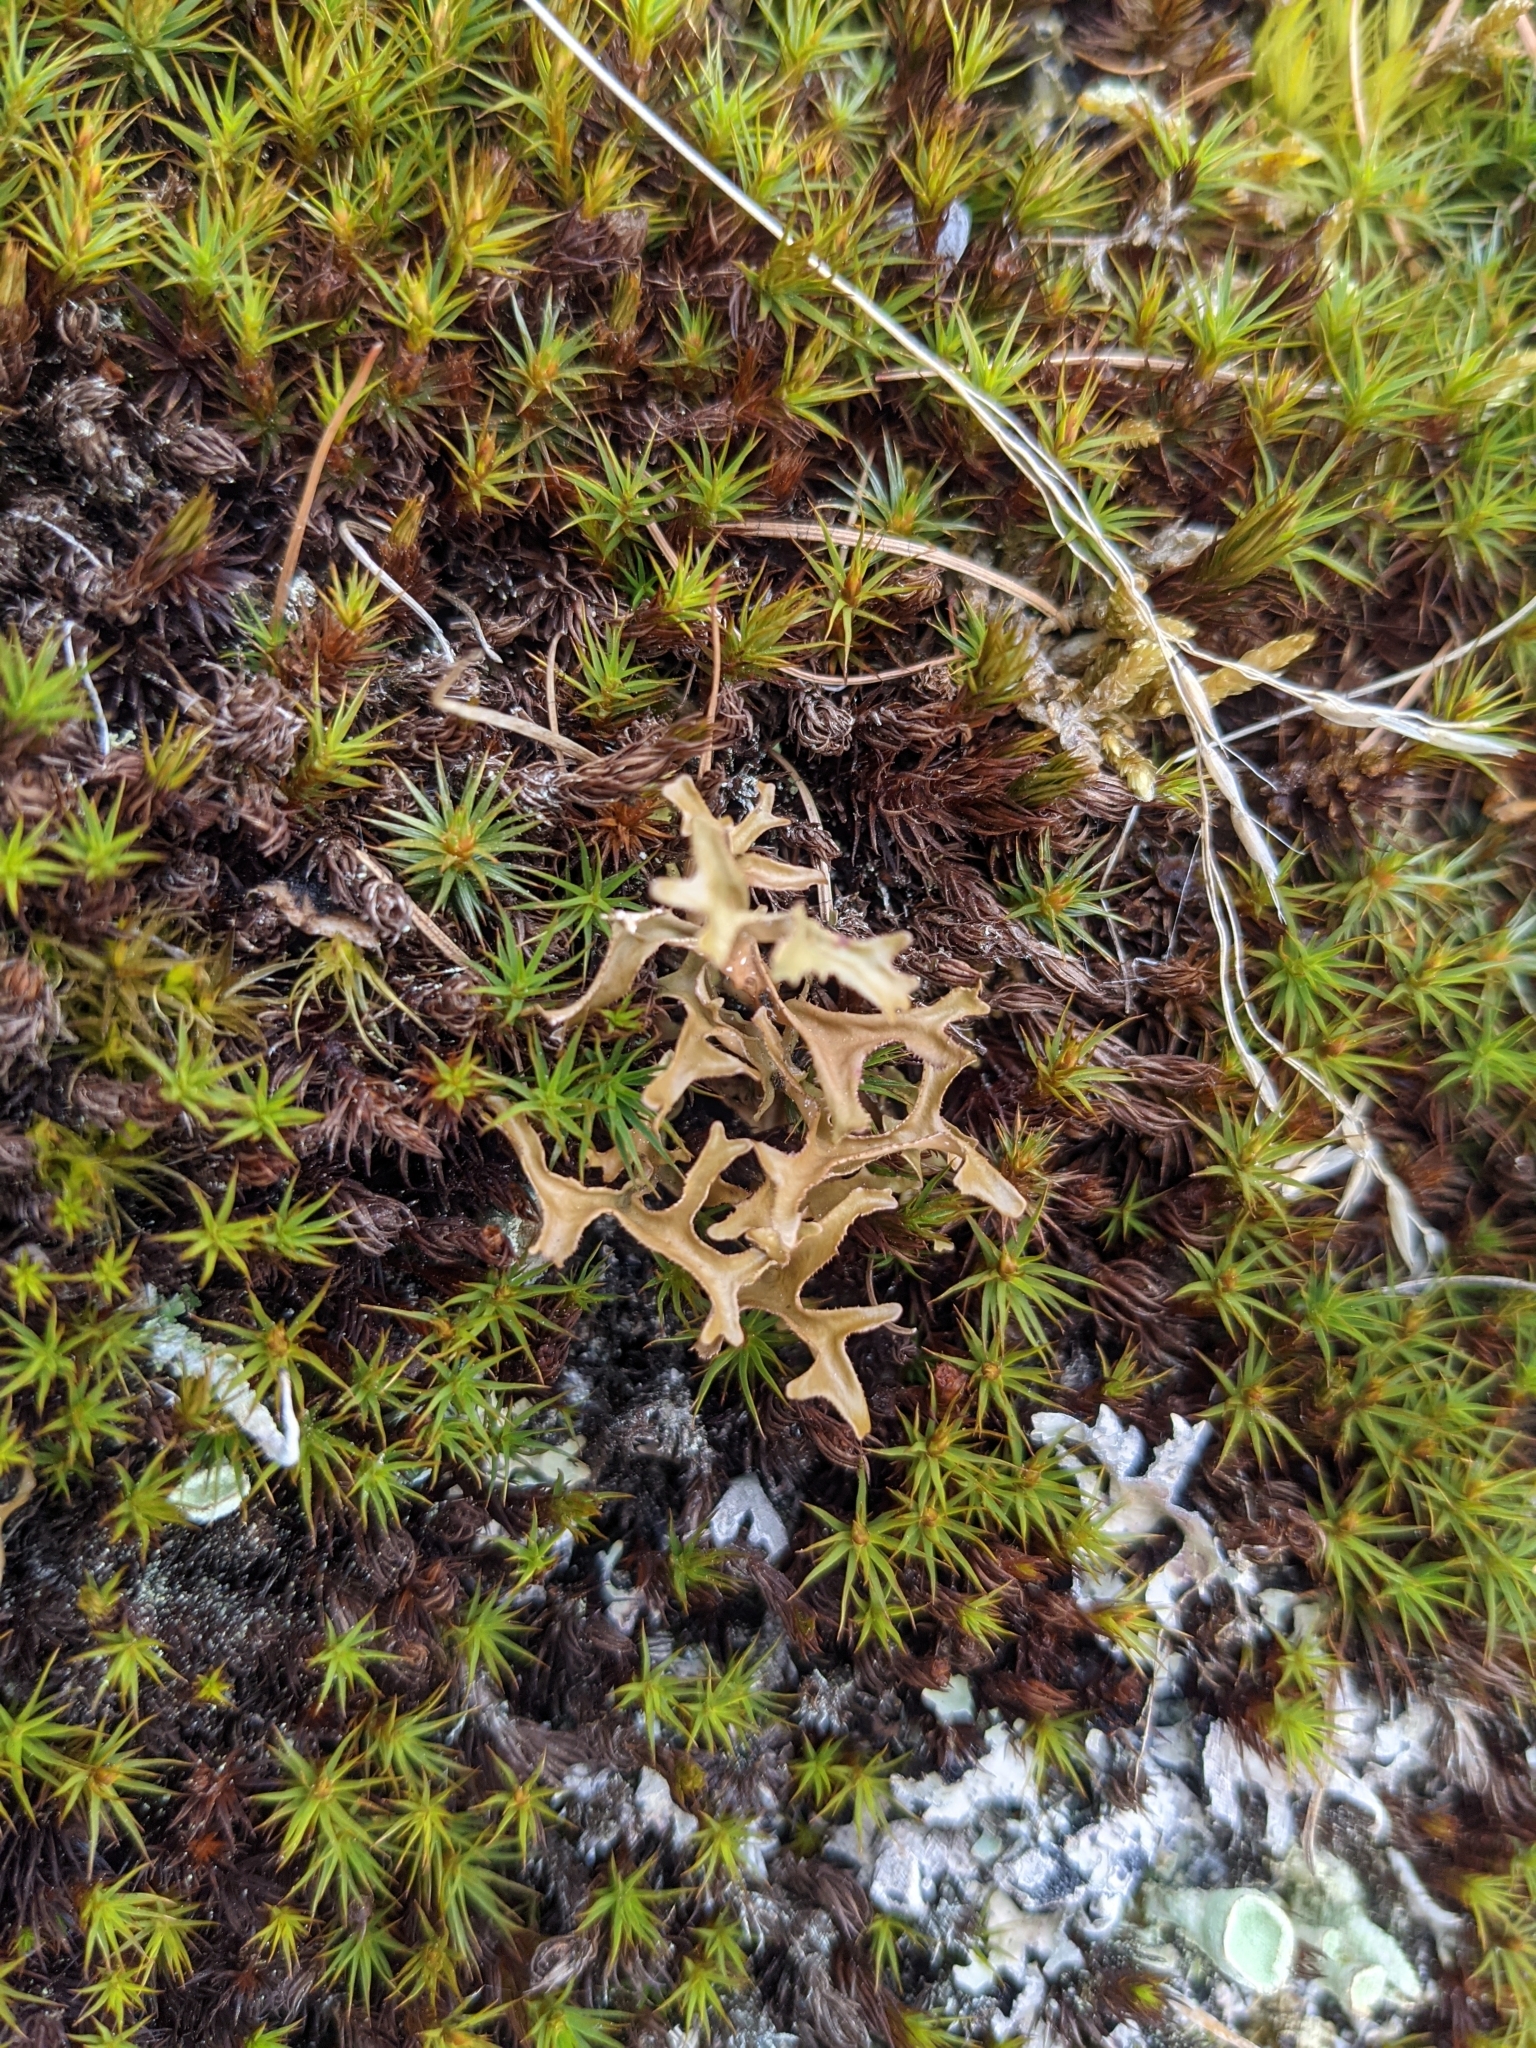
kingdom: Fungi
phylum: Ascomycota
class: Lecanoromycetes
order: Lecanorales
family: Parmeliaceae
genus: Cetraria
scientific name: Cetraria islandica
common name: Iceland lichen
